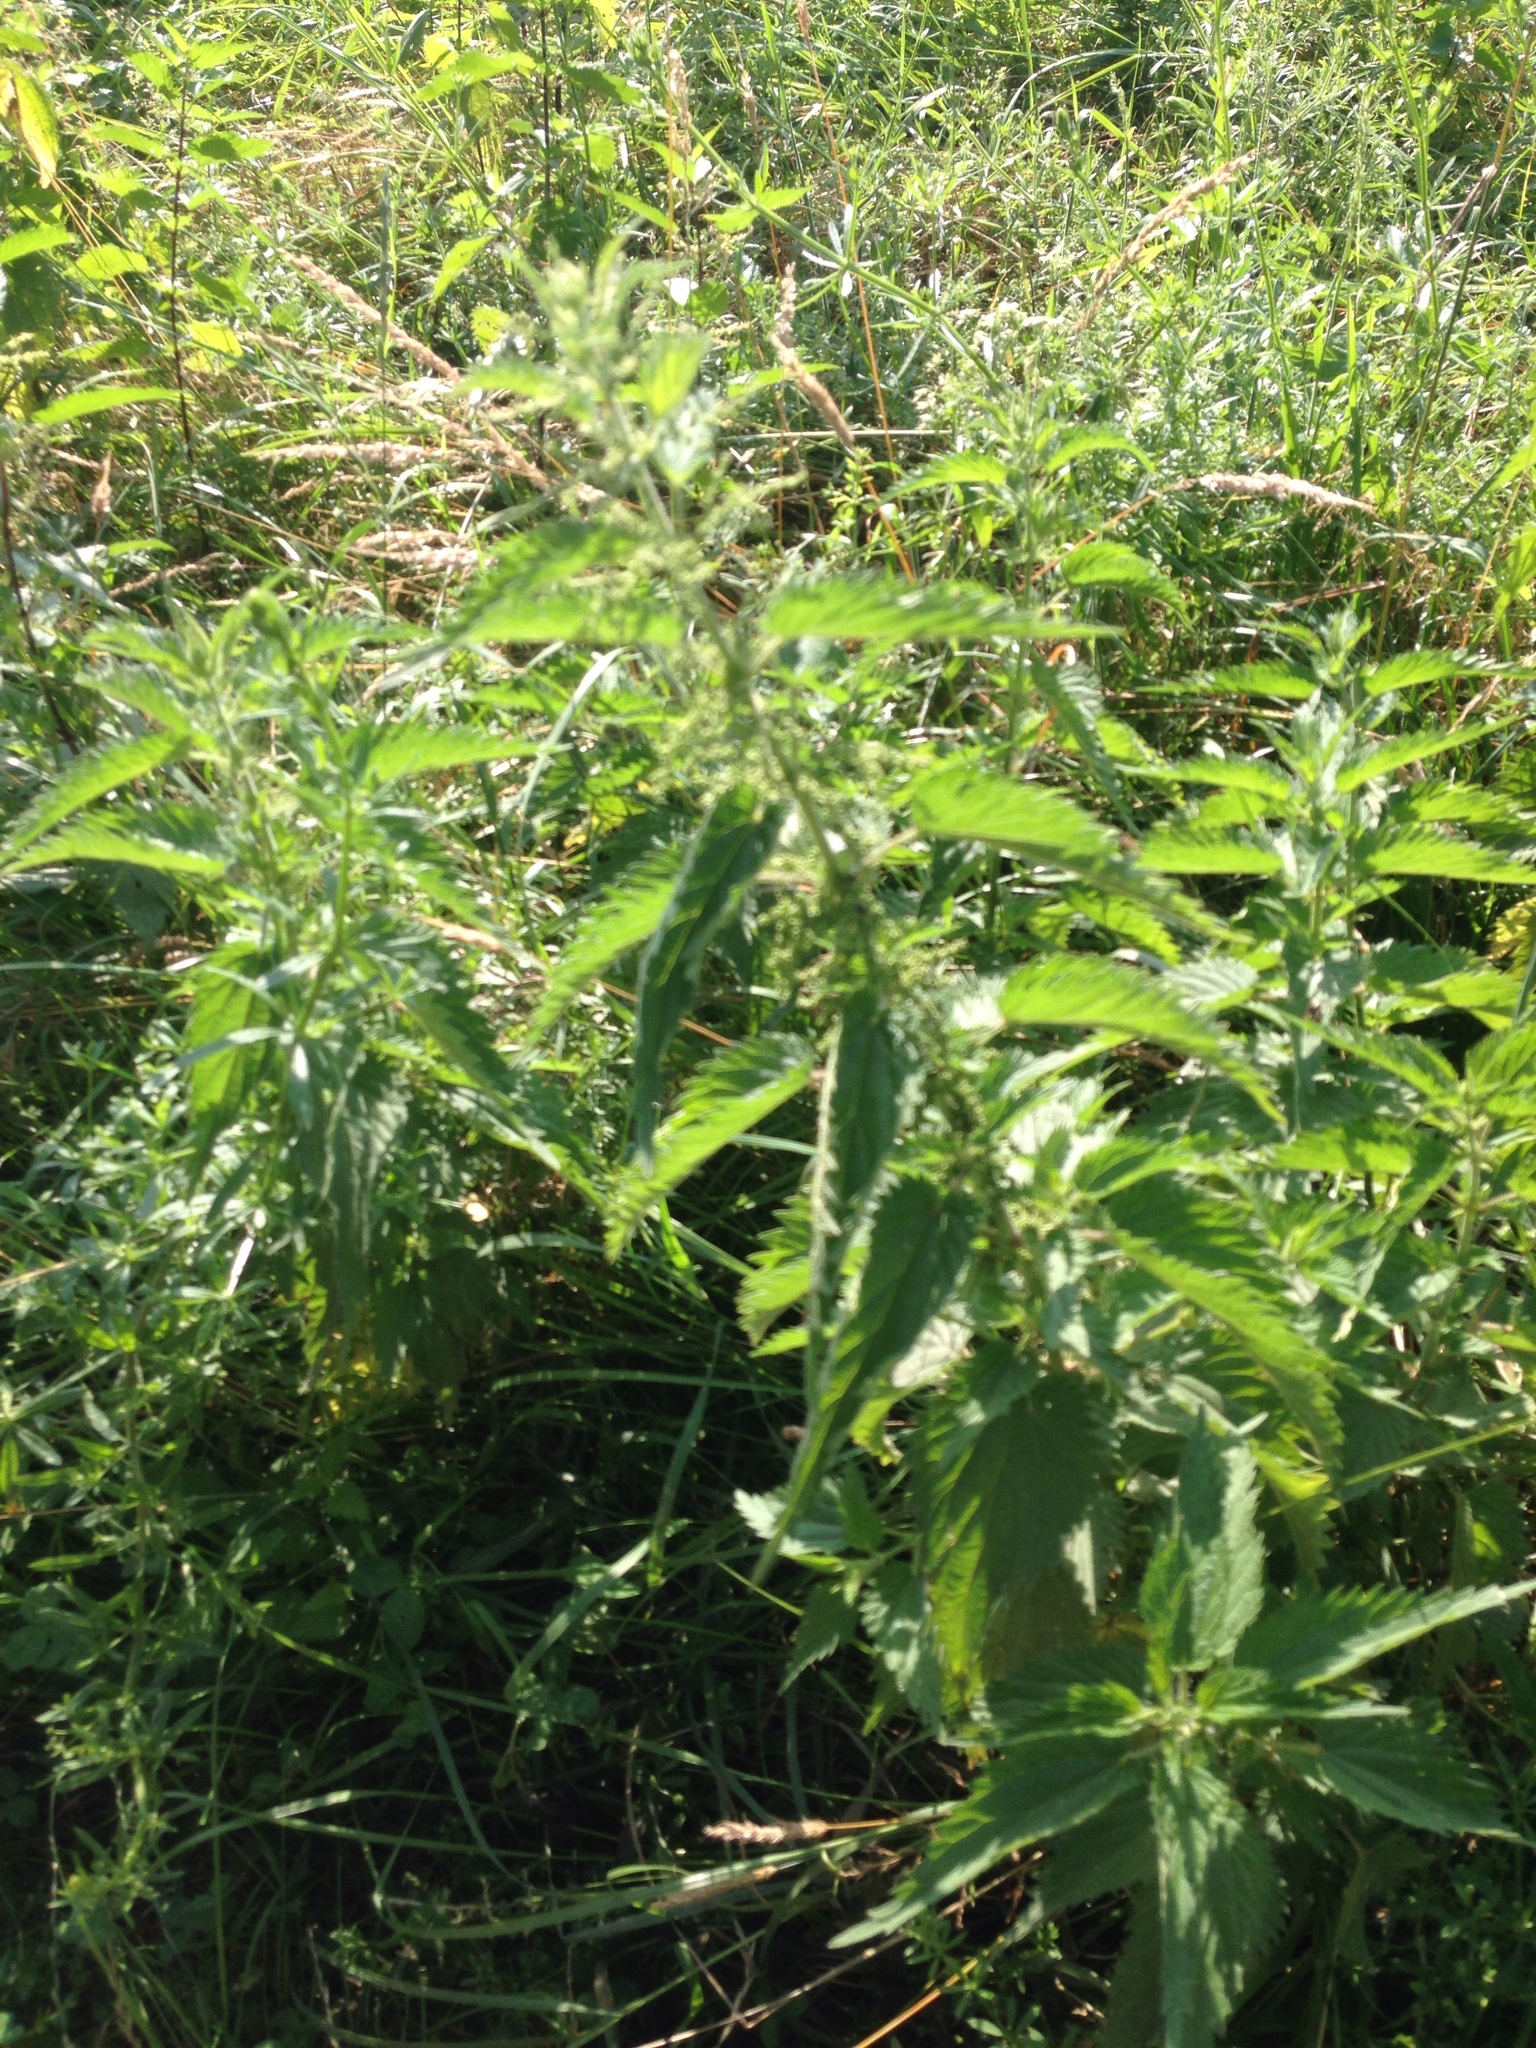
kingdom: Plantae
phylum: Tracheophyta
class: Magnoliopsida
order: Rosales
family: Urticaceae
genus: Urtica
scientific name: Urtica dioica
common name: Common nettle
